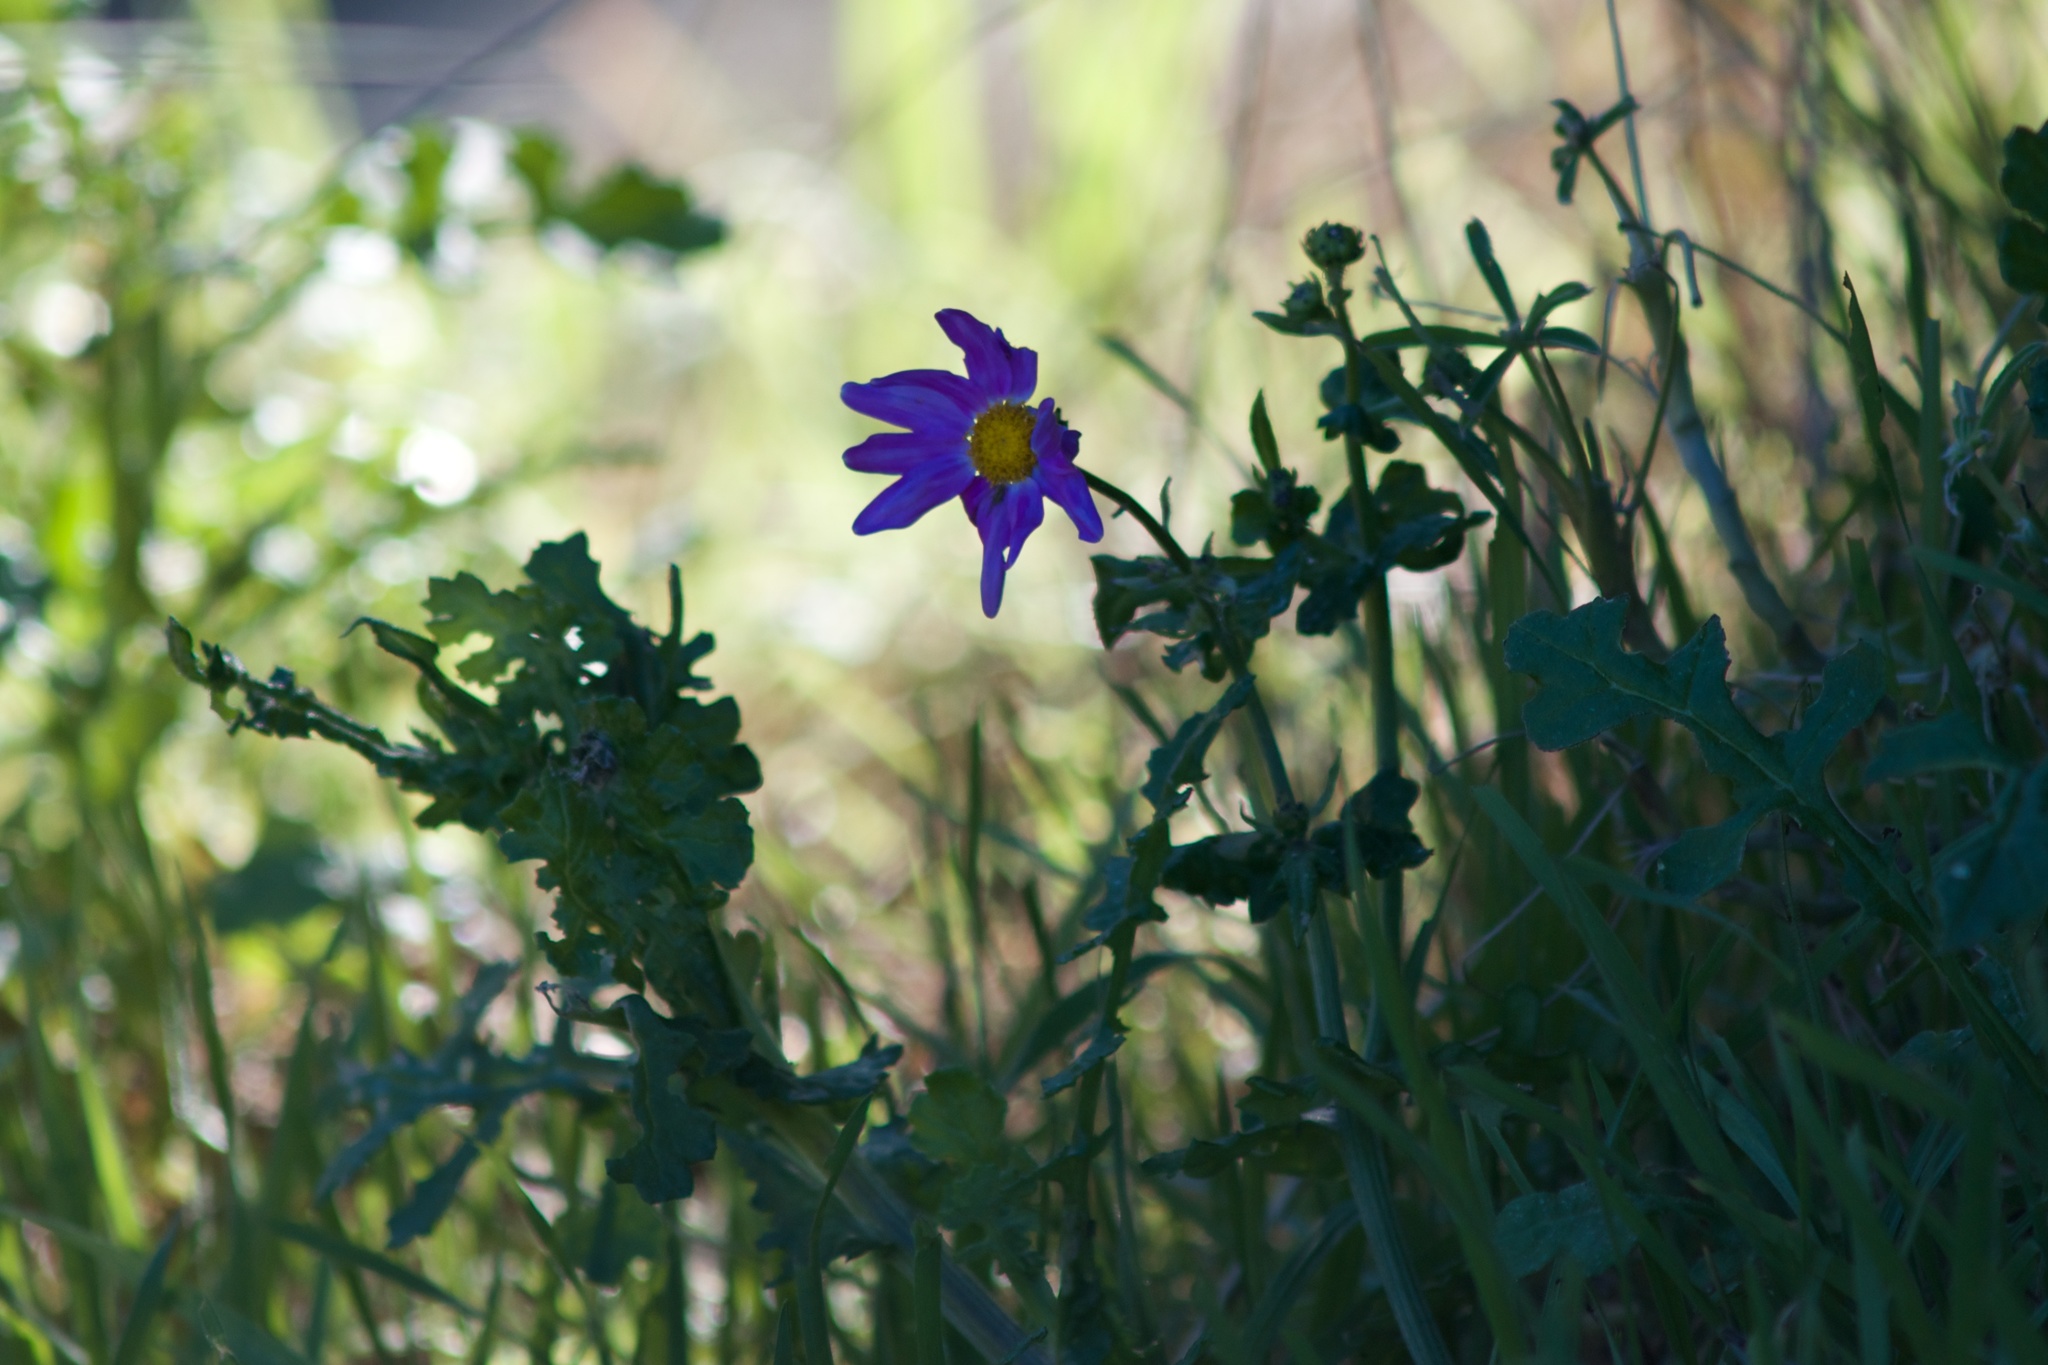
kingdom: Plantae
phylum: Tracheophyta
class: Magnoliopsida
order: Asterales
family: Asteraceae
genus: Senecio
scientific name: Senecio elegans
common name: Purple groundsel
